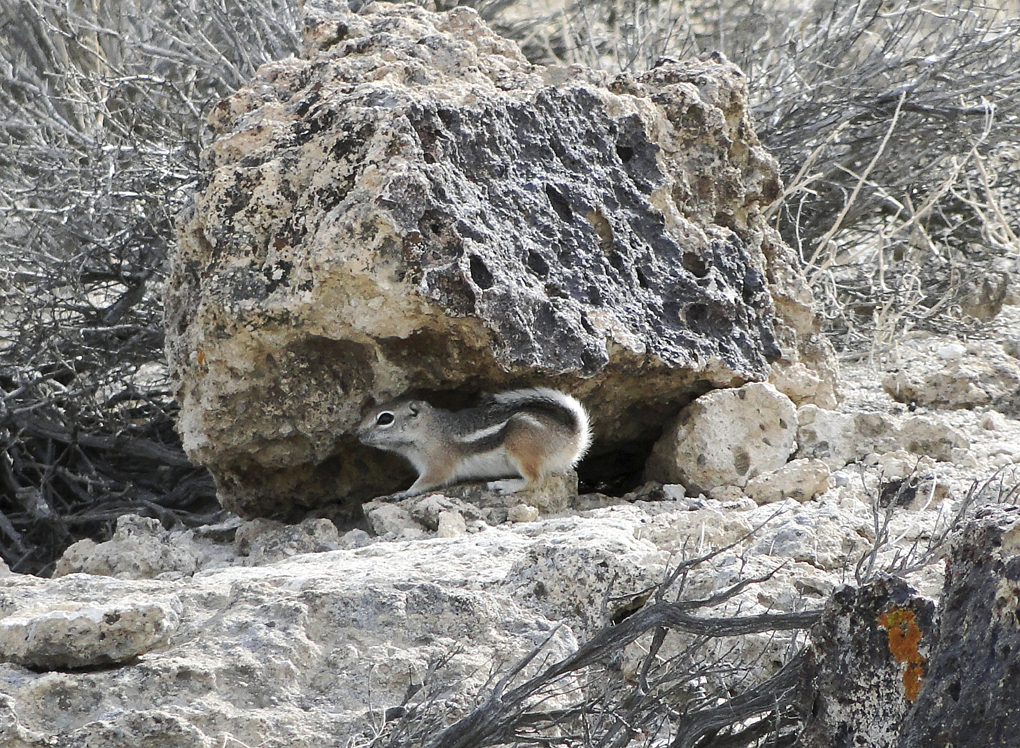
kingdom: Animalia
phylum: Chordata
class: Mammalia
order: Rodentia
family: Sciuridae
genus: Ammospermophilus
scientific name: Ammospermophilus leucurus
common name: White-tailed antelope squirrel
